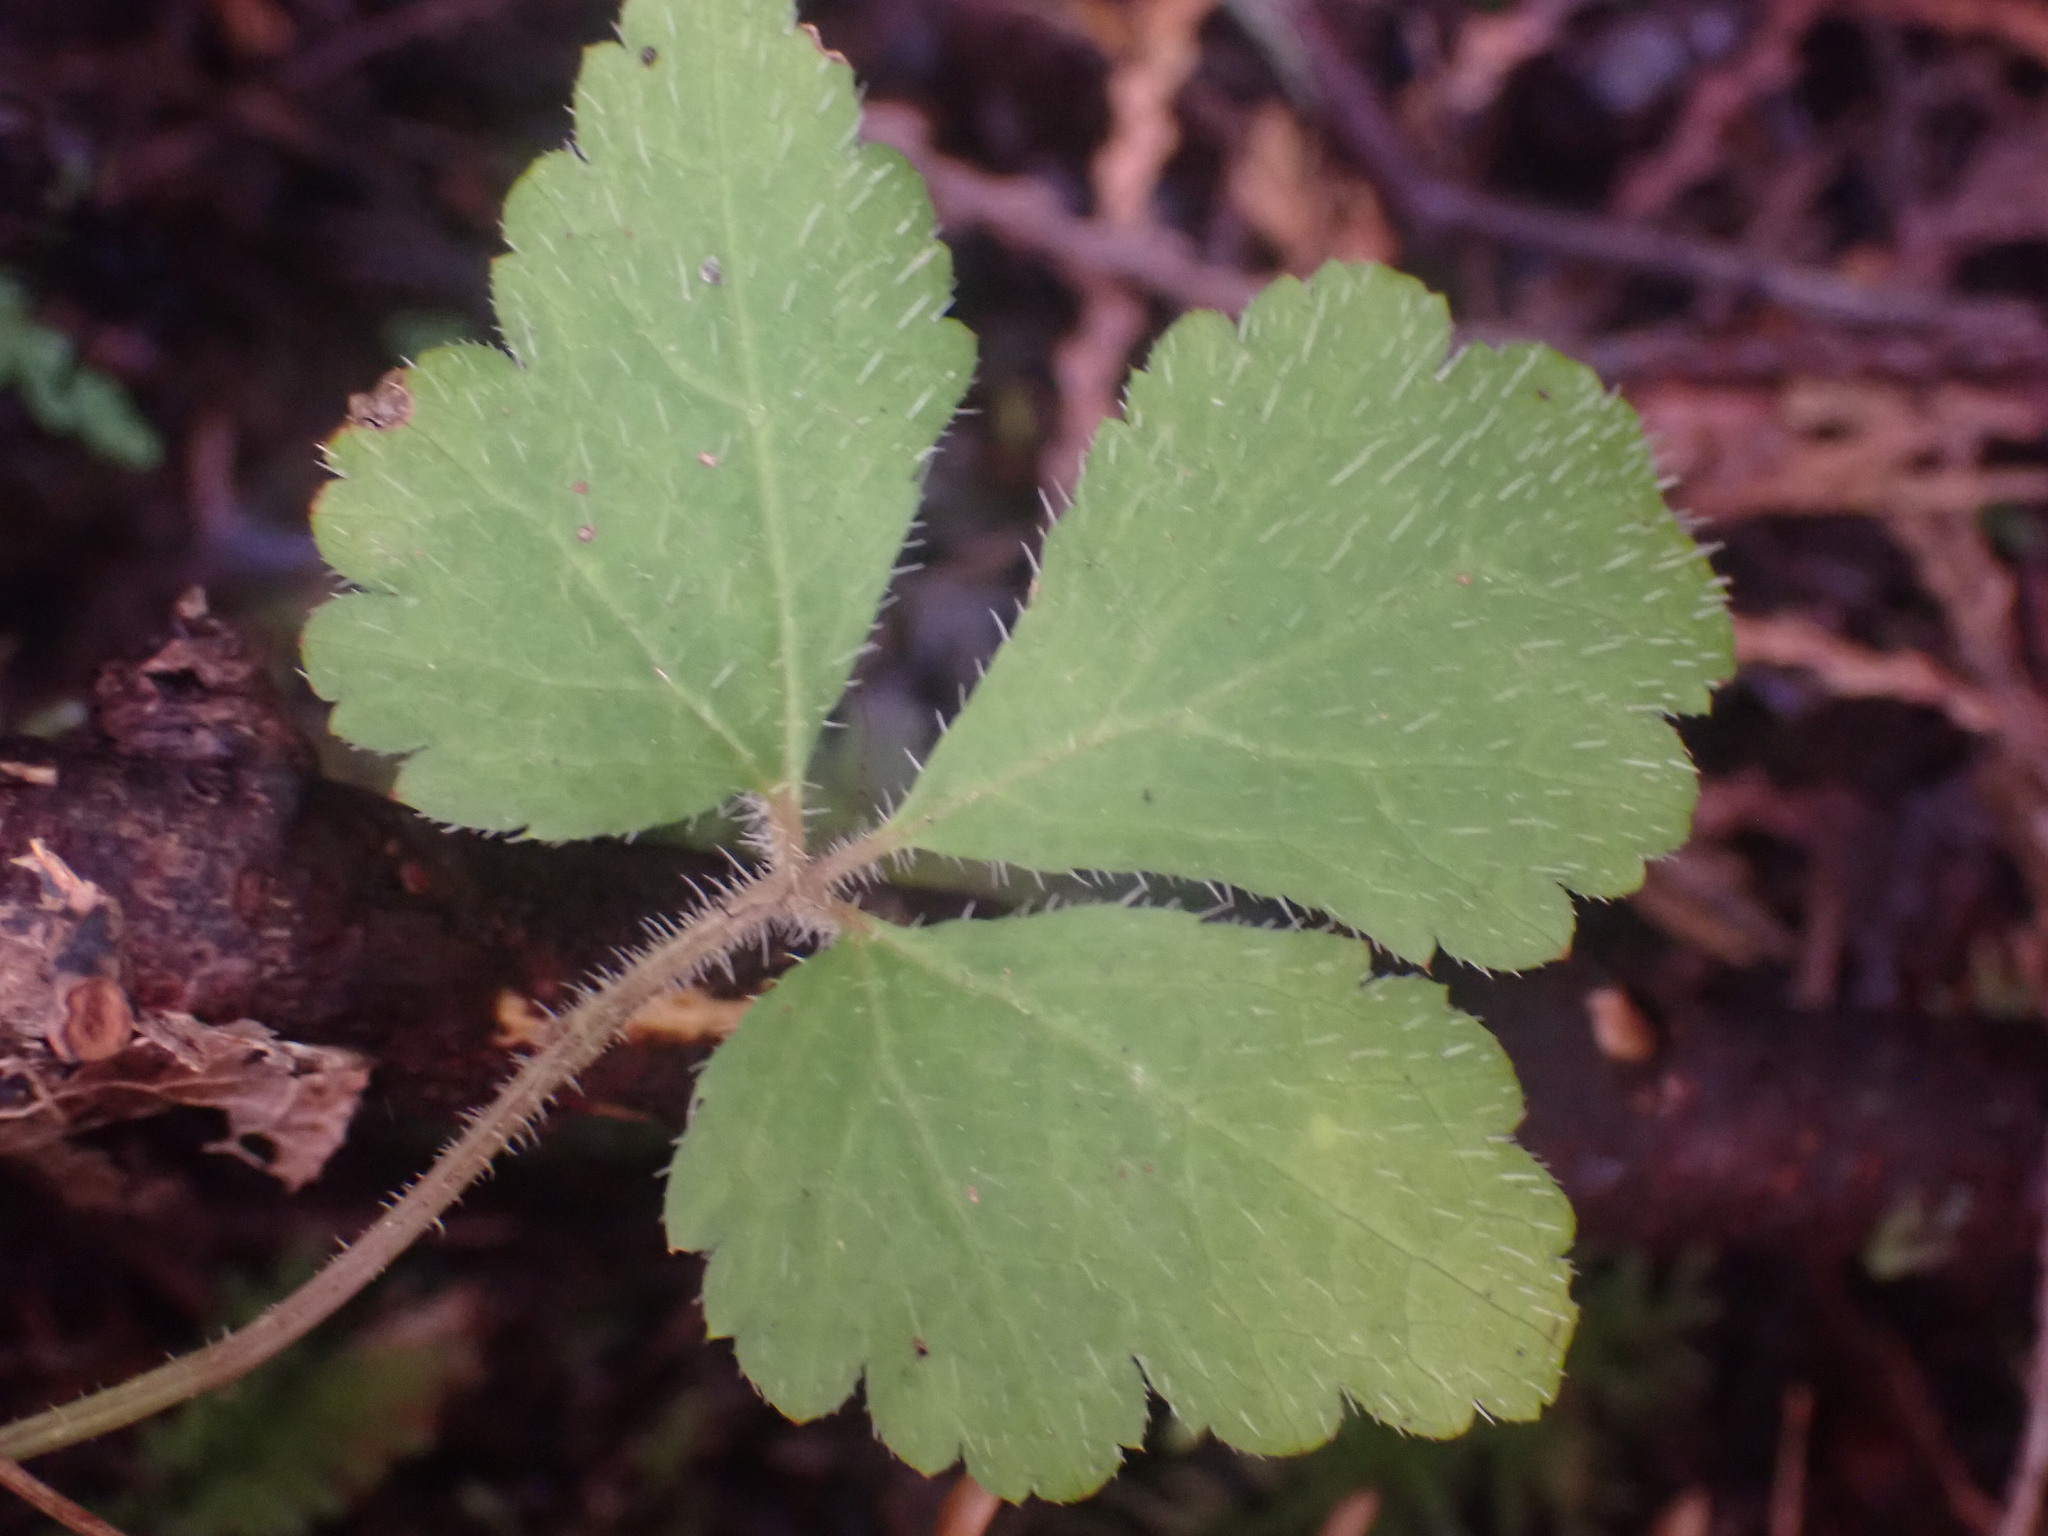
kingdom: Plantae
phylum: Tracheophyta
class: Magnoliopsida
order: Saxifragales
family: Saxifragaceae
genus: Tiarella
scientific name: Tiarella trifoliata
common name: Sugar-scoop
